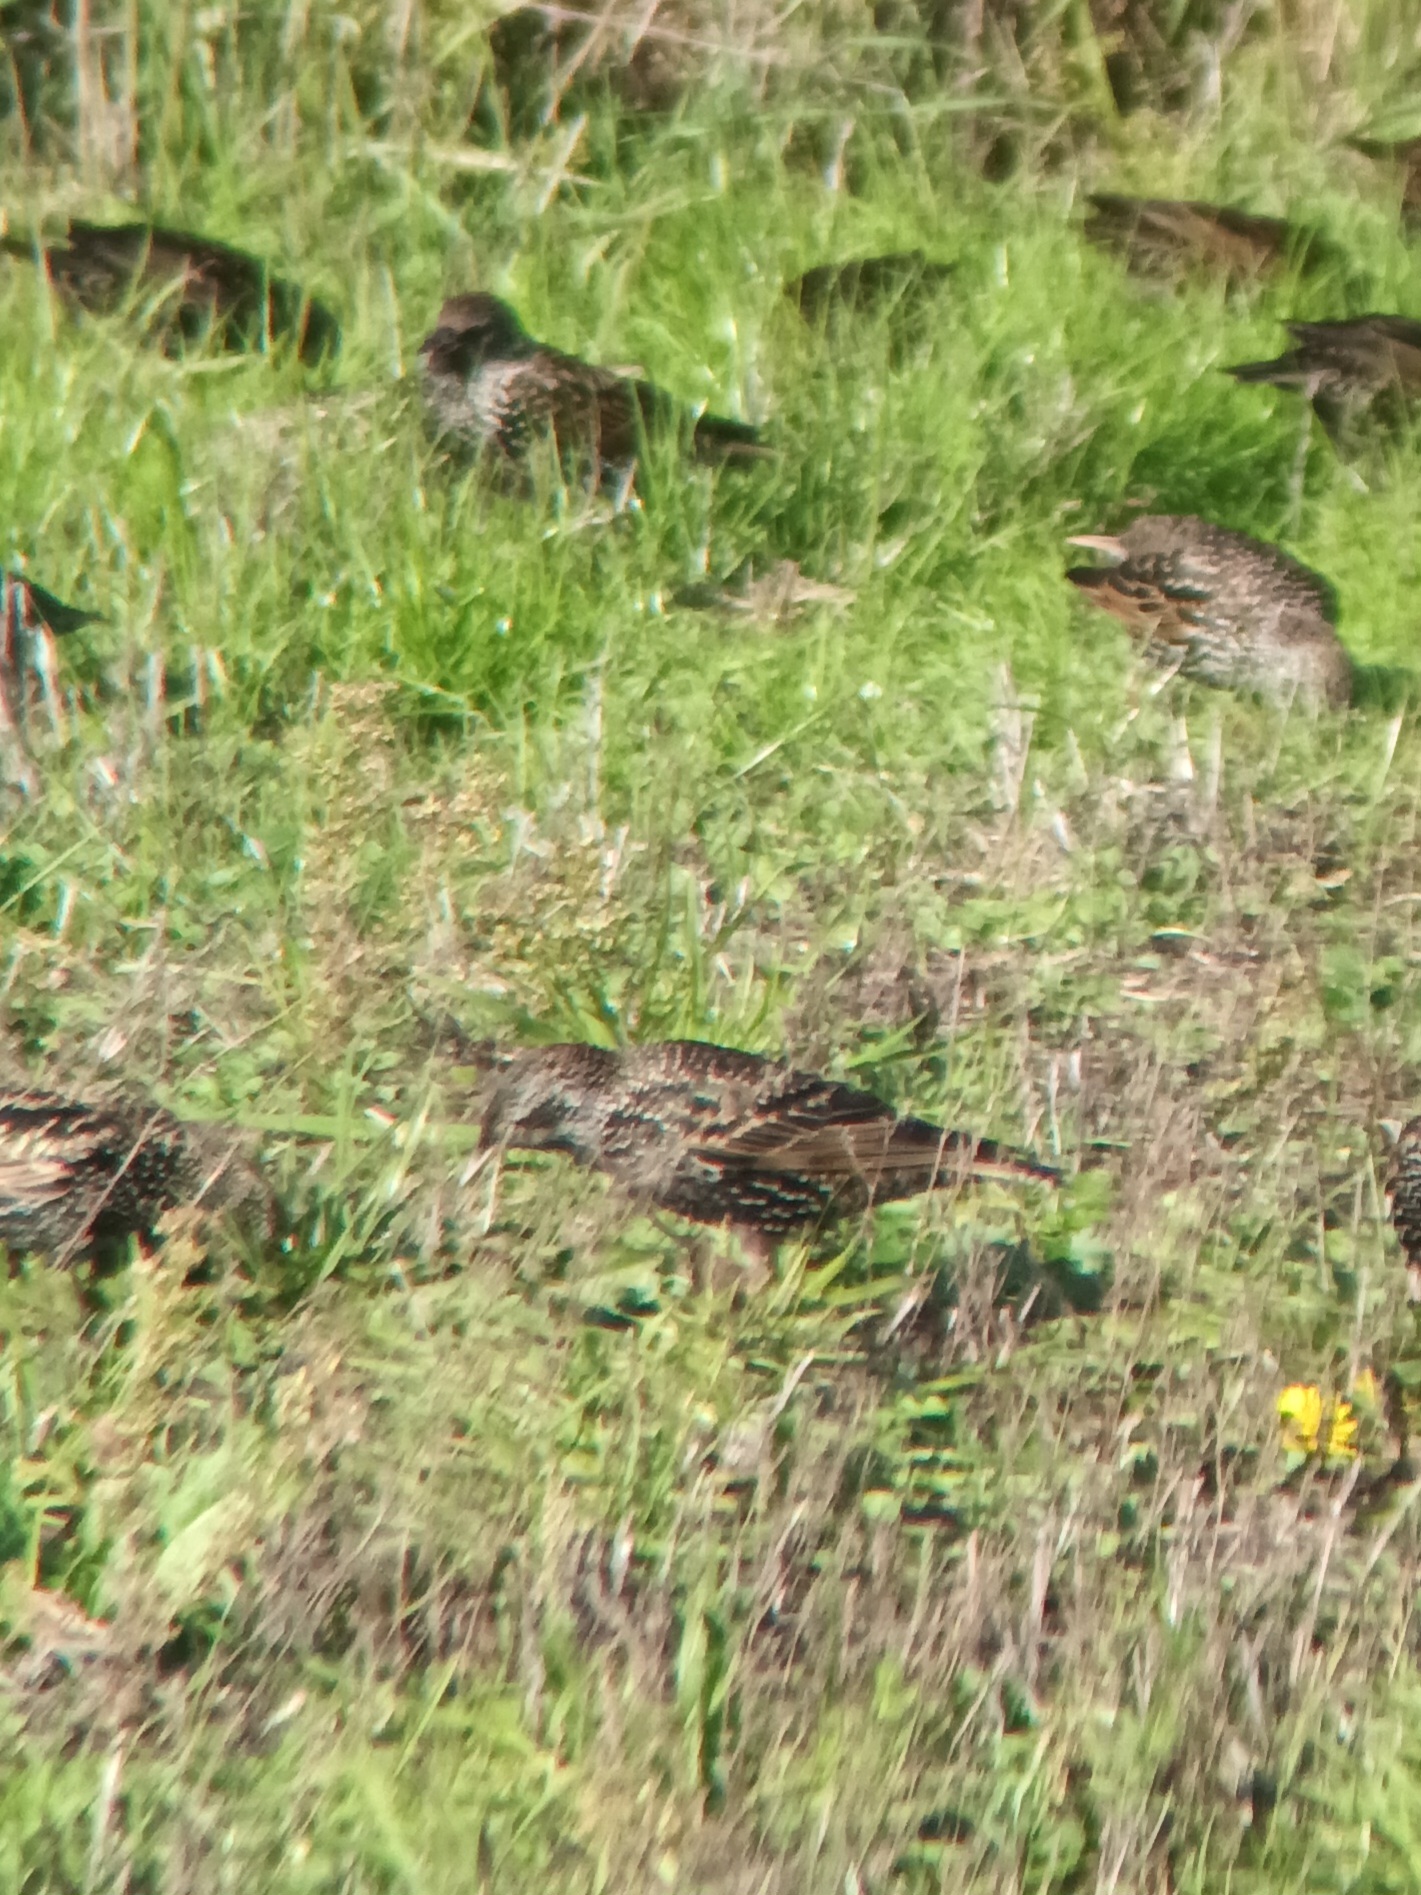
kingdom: Animalia
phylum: Chordata
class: Aves
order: Passeriformes
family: Sturnidae
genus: Sturnus
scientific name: Sturnus vulgaris
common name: Common starling
